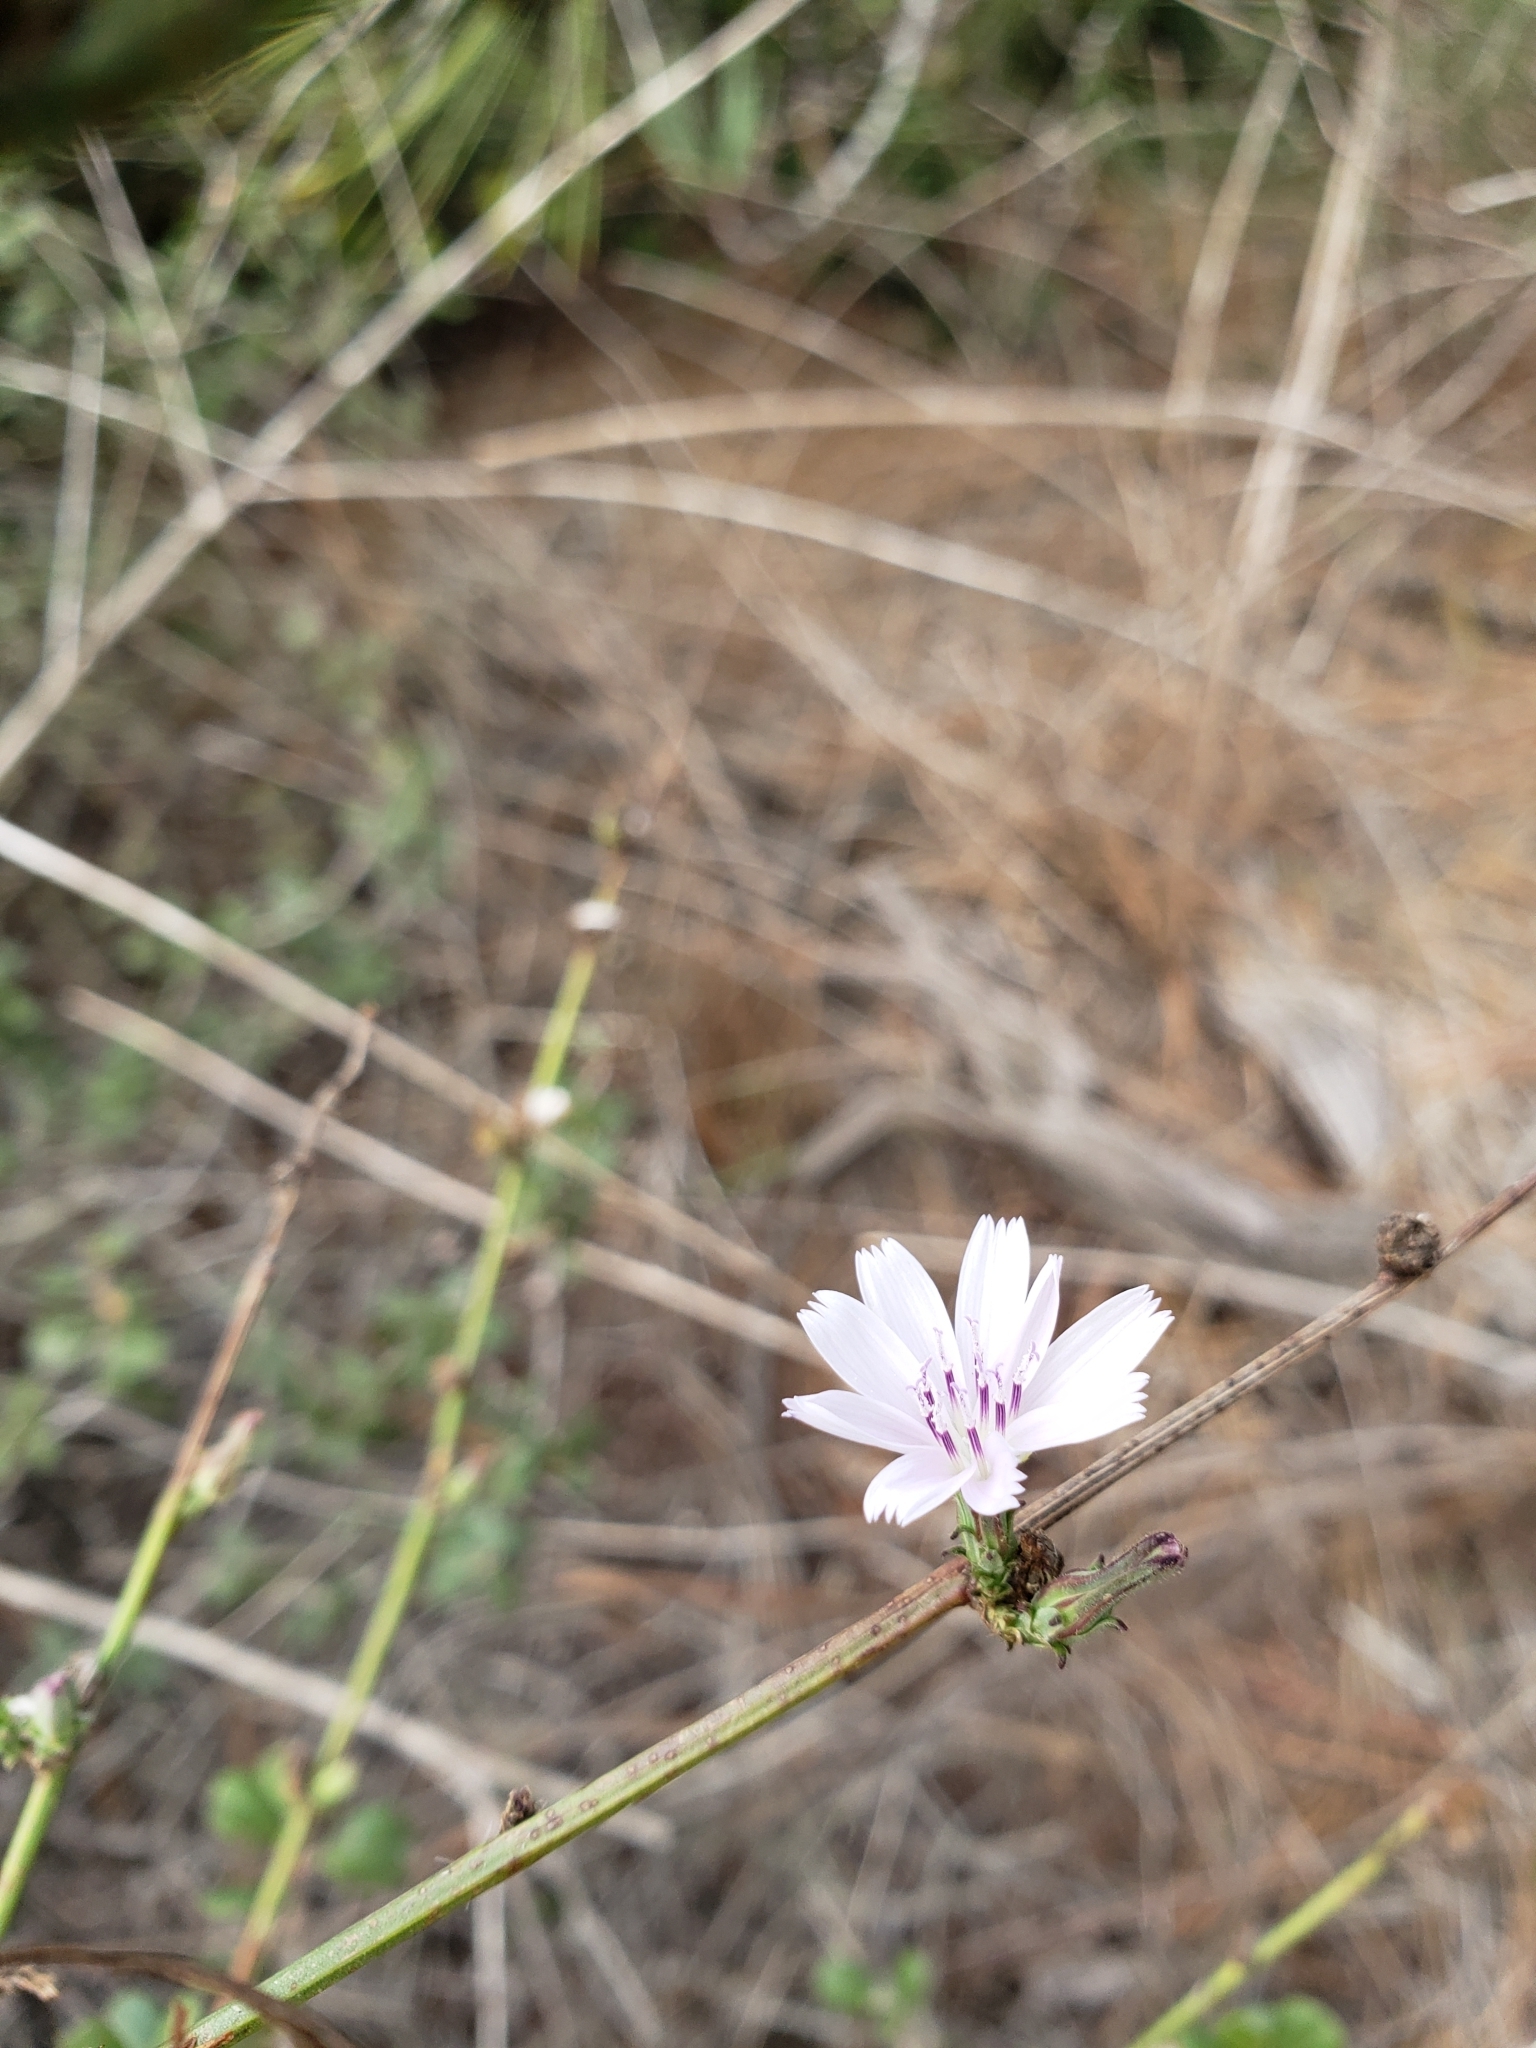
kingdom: Plantae
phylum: Tracheophyta
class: Magnoliopsida
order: Asterales
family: Asteraceae
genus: Stephanomeria
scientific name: Stephanomeria diegensis
